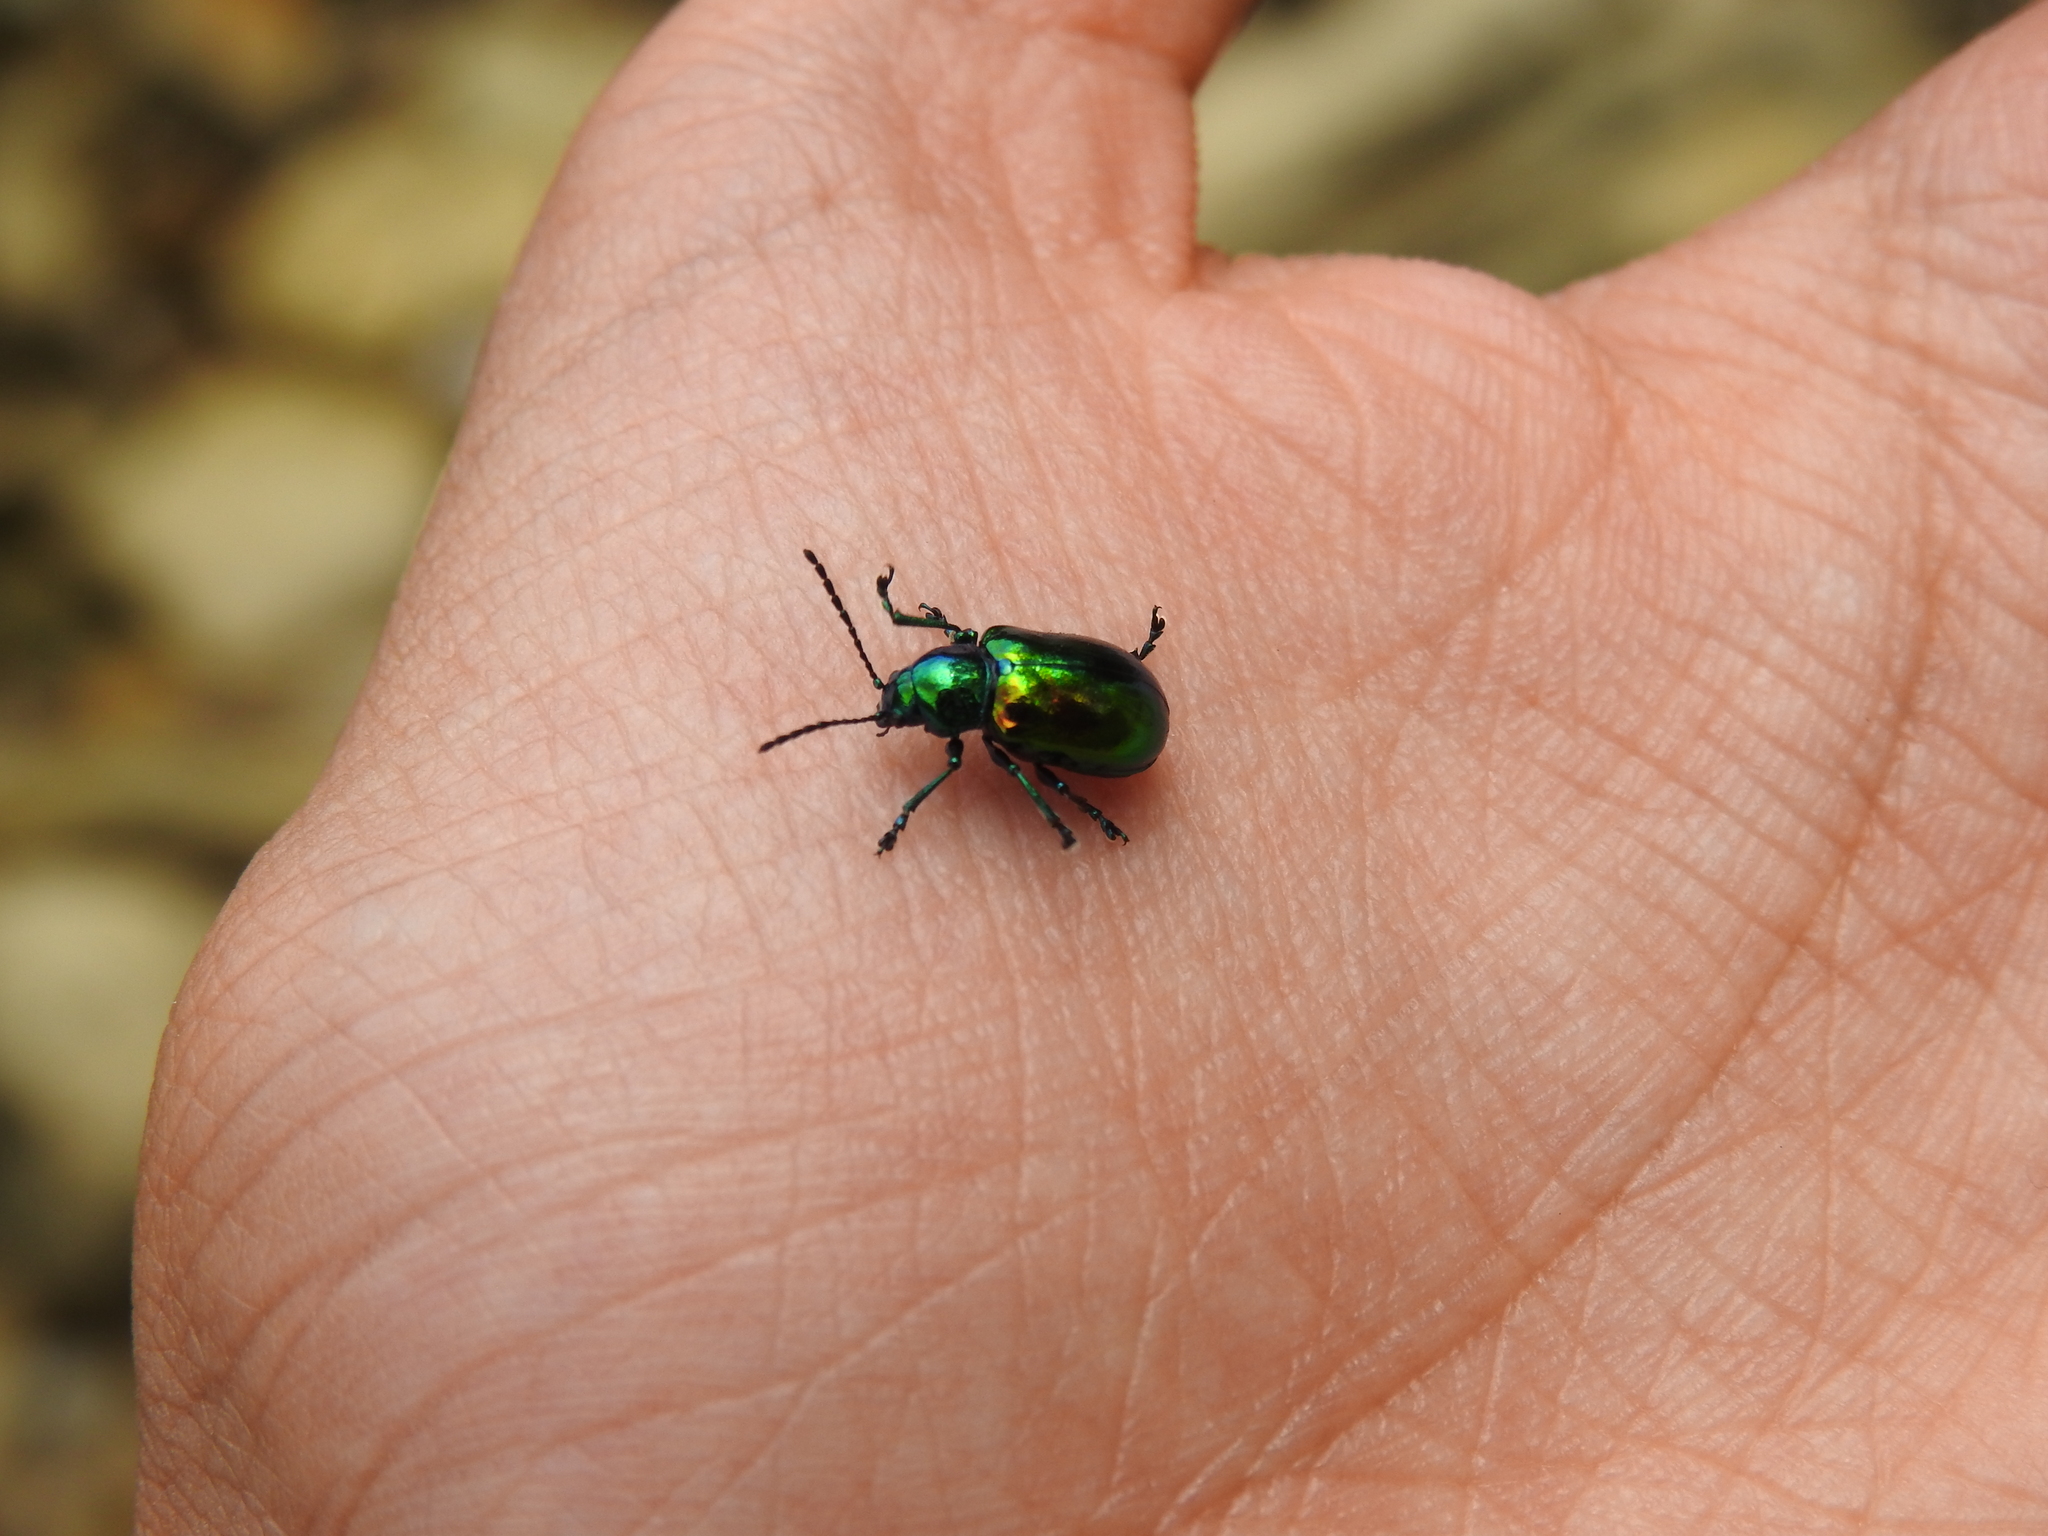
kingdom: Animalia
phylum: Arthropoda
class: Insecta
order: Coleoptera
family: Chrysomelidae
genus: Chrysochus
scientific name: Chrysochus auratus
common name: Dogbane leaf beetle
